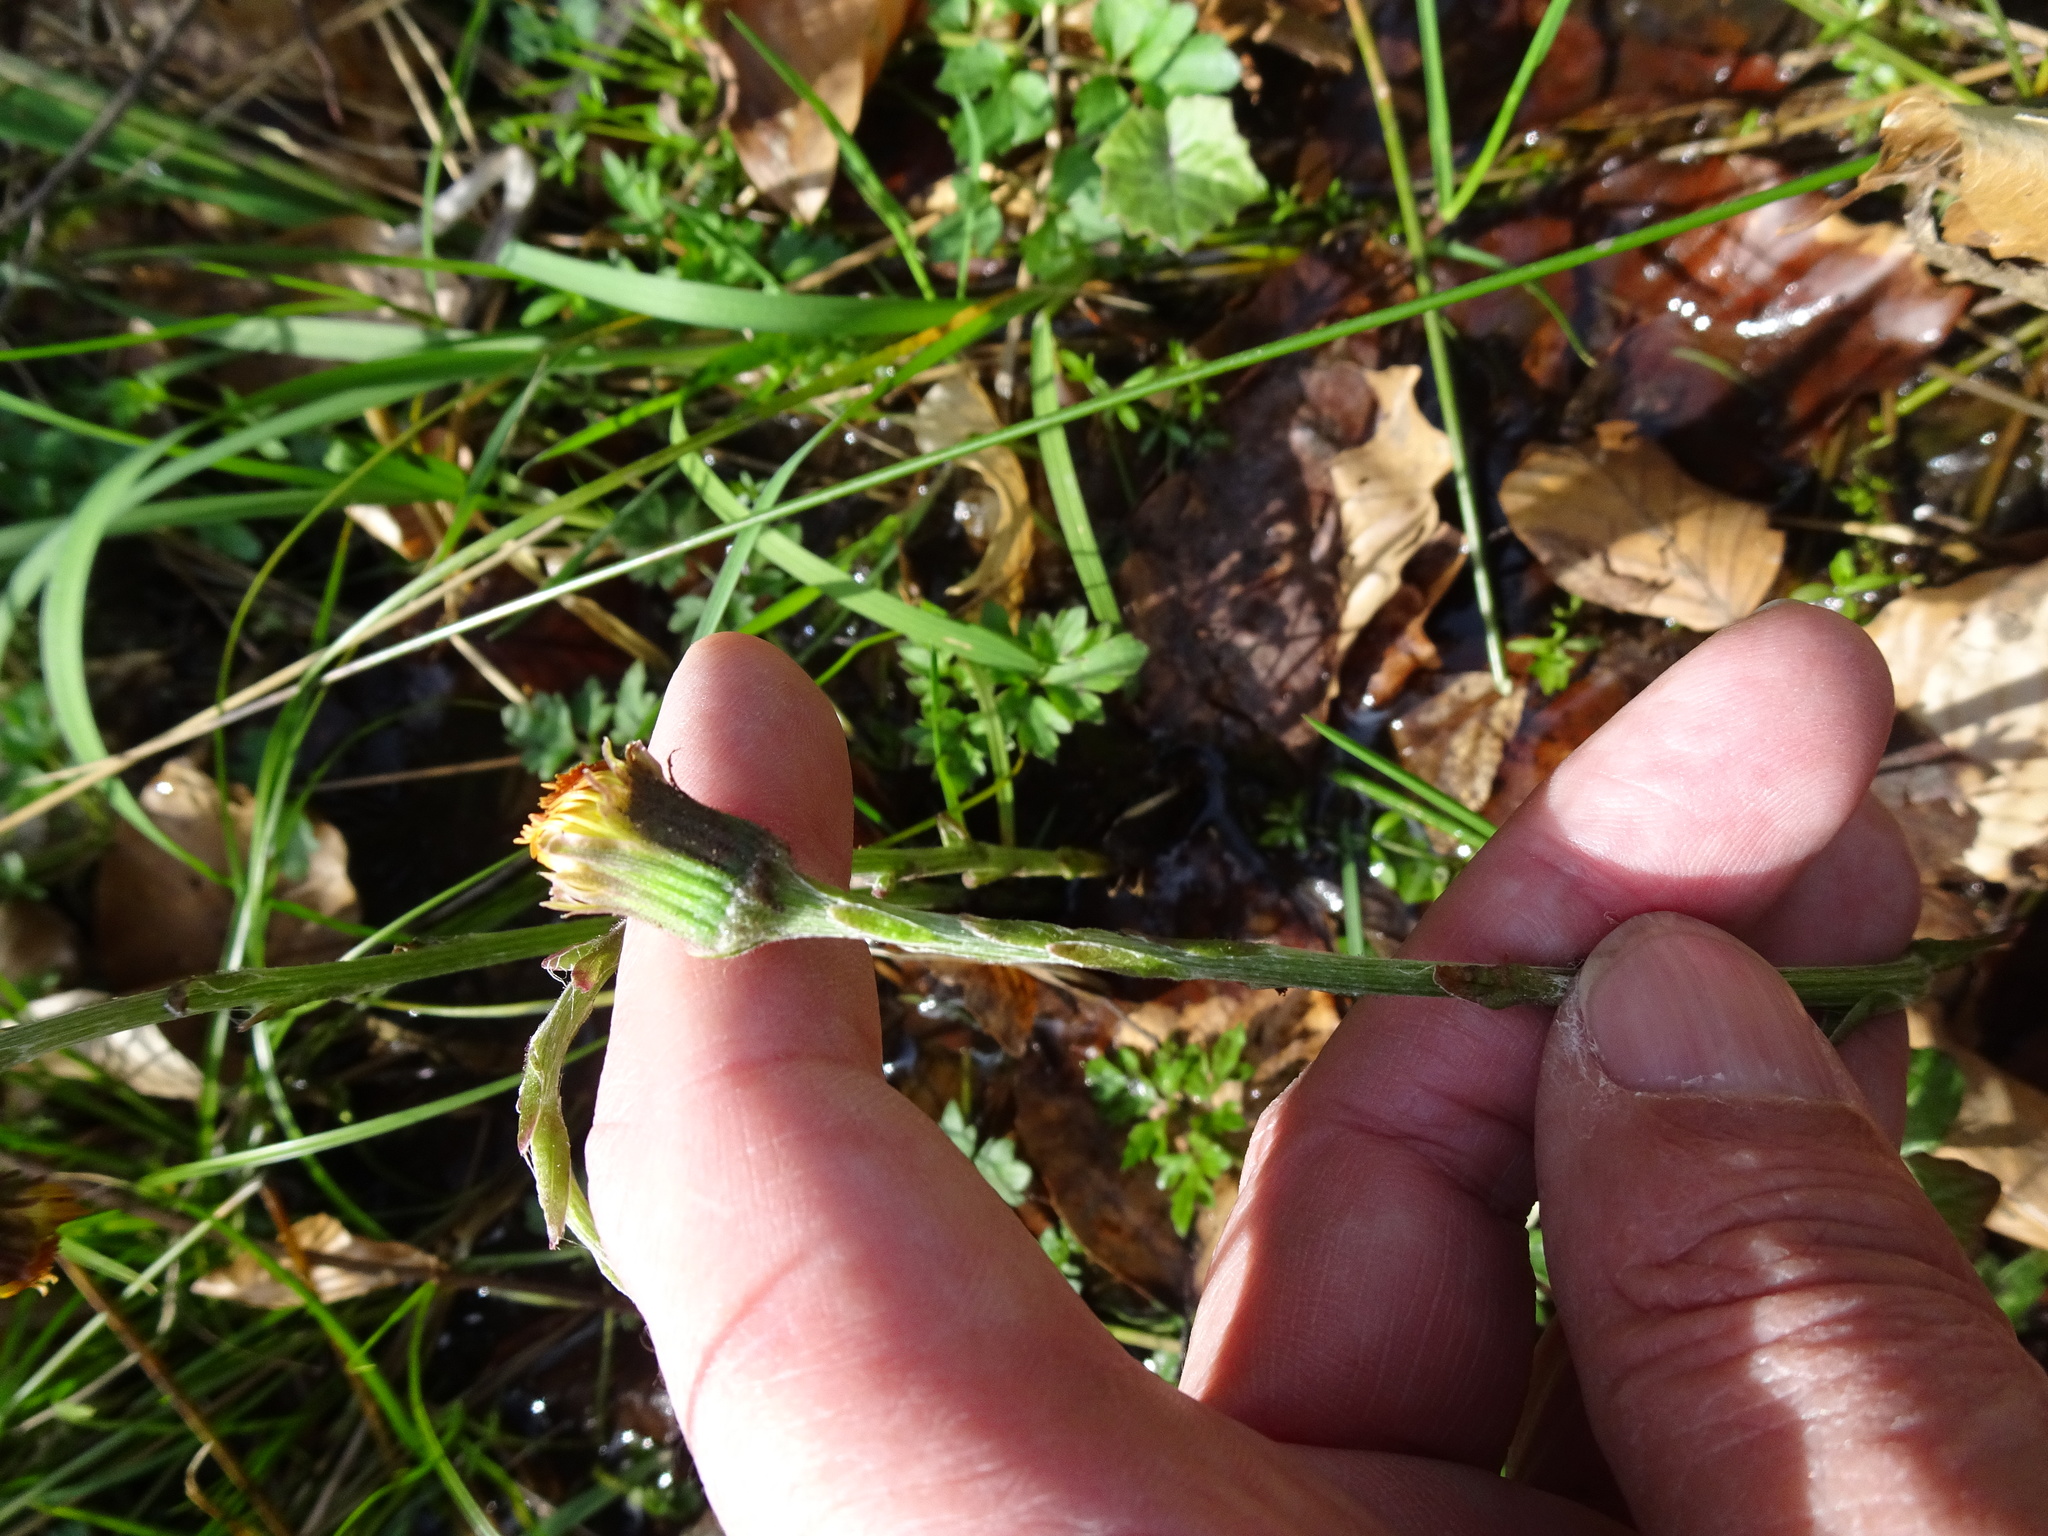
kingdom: Plantae
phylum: Tracheophyta
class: Magnoliopsida
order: Asterales
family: Asteraceae
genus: Tussilago
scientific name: Tussilago farfara
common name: Coltsfoot
